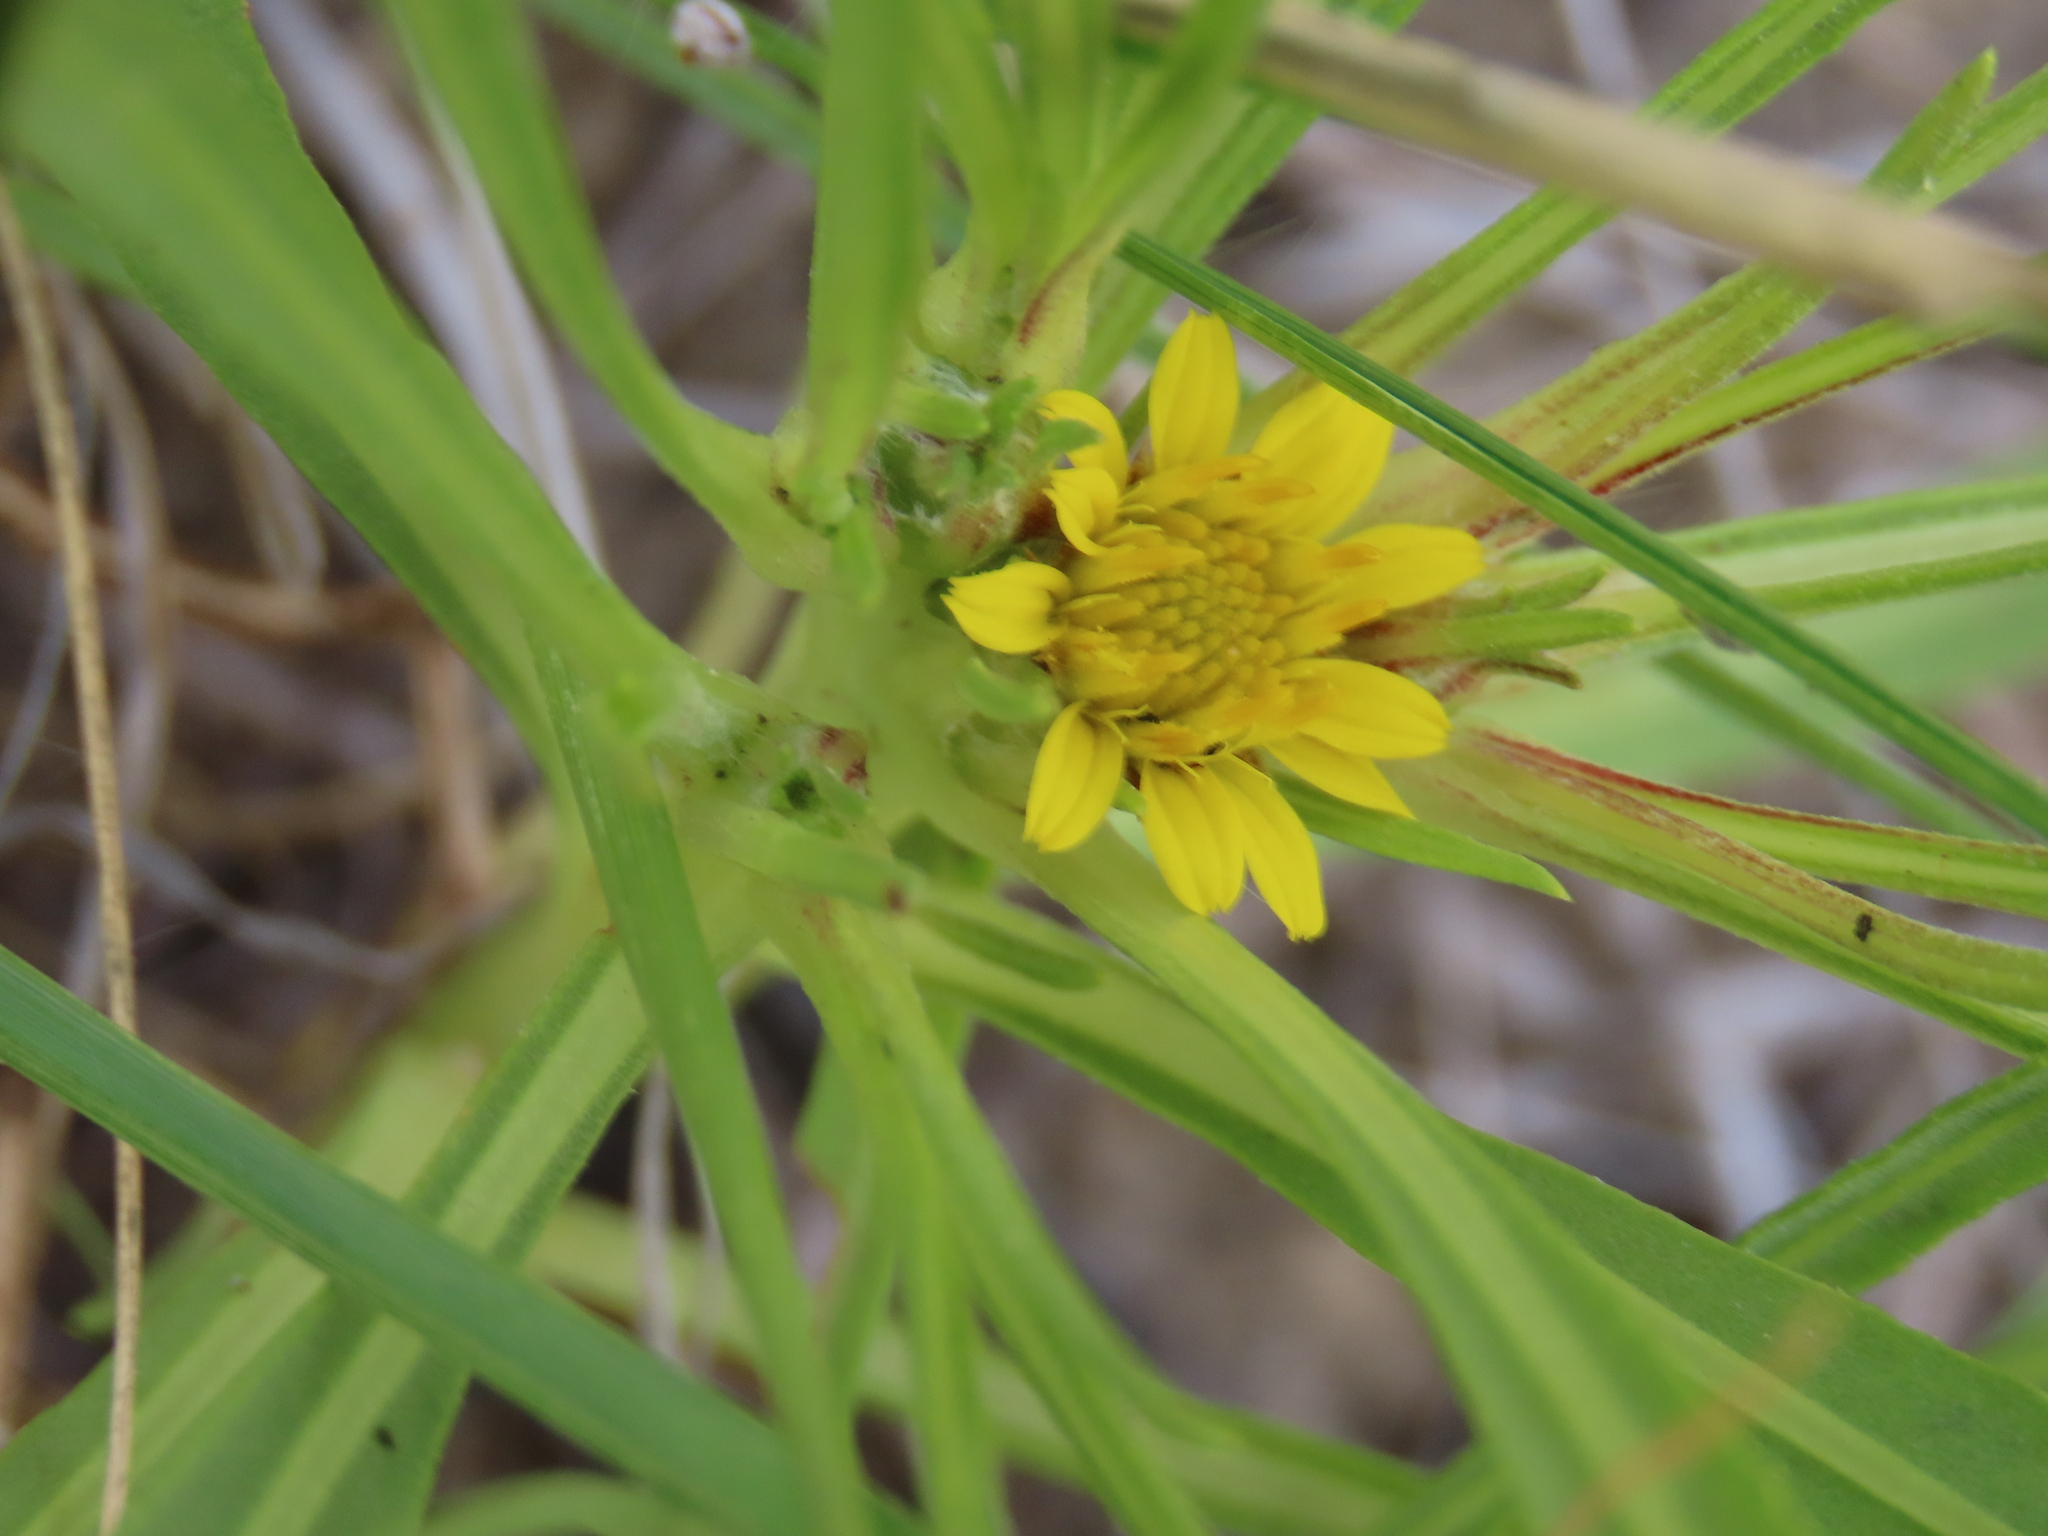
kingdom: Plantae
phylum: Tracheophyta
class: Magnoliopsida
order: Asterales
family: Asteraceae
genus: Geigeria
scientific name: Geigeria ornativa
